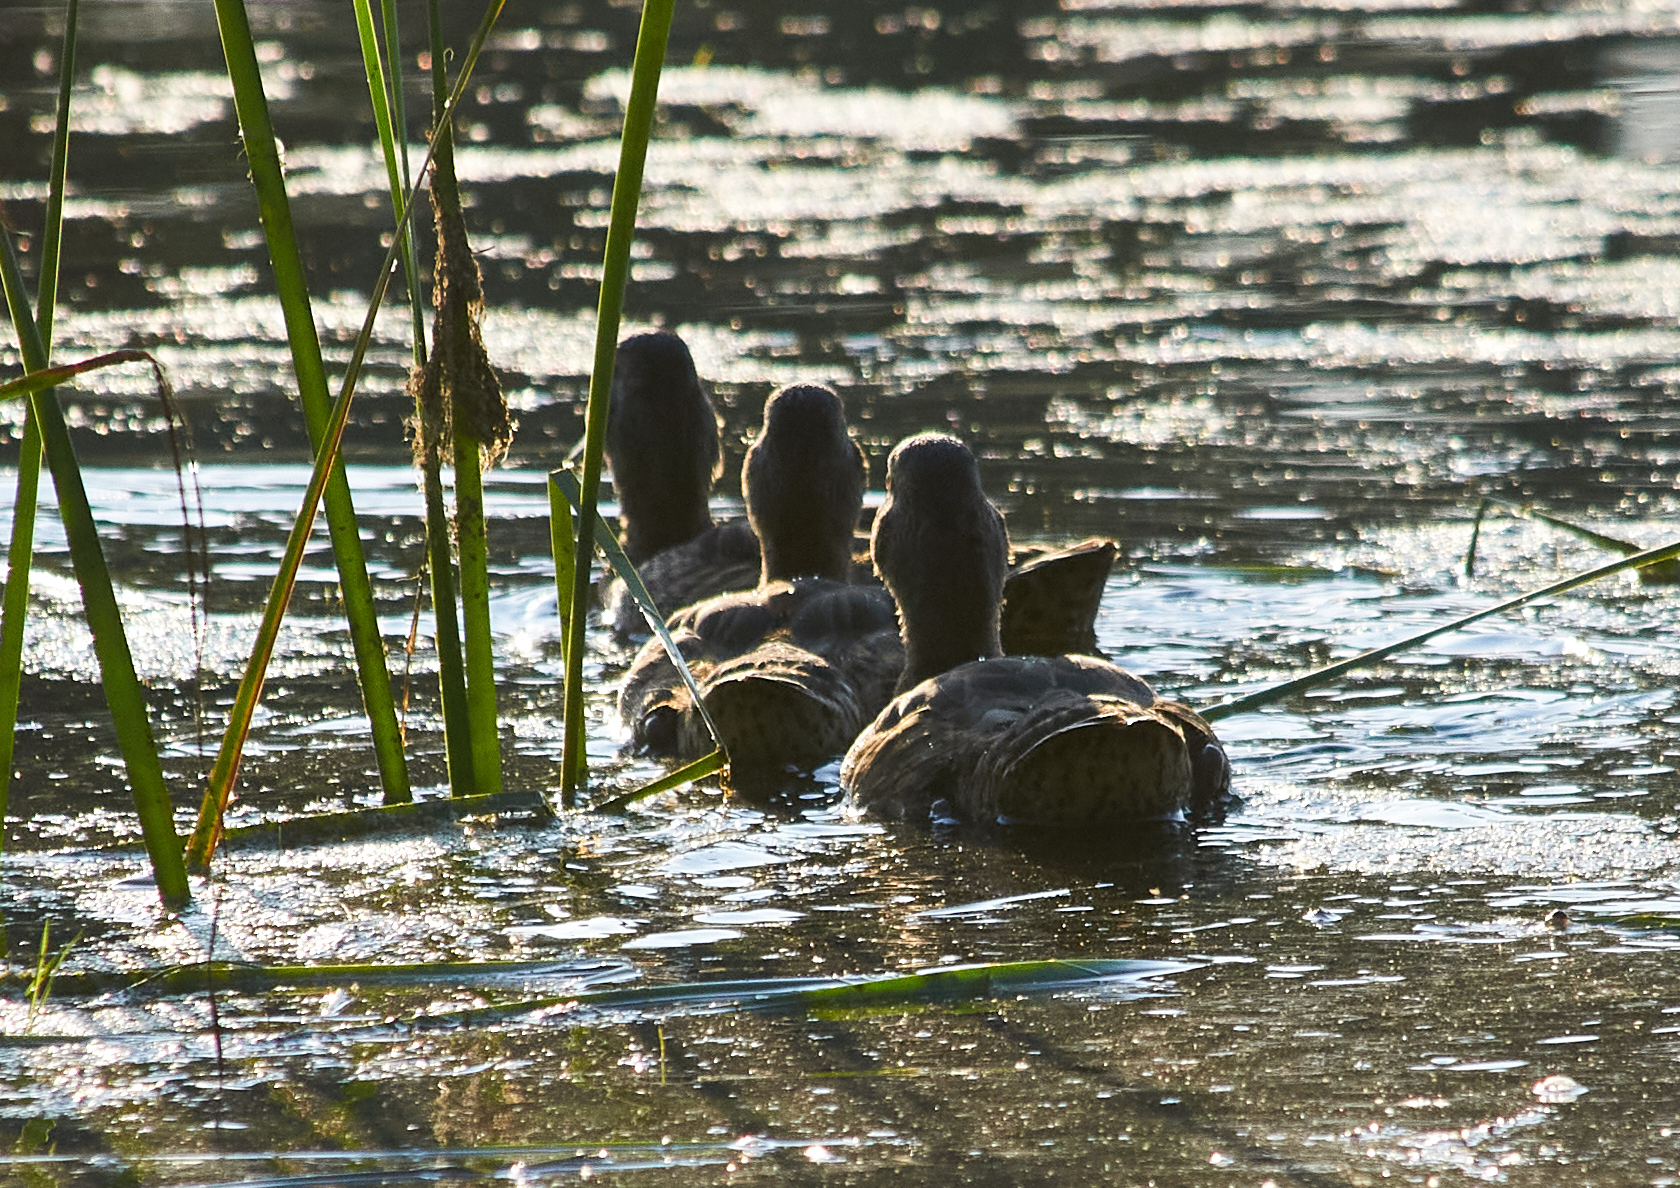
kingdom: Animalia
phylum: Chordata
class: Aves
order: Anseriformes
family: Anatidae
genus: Aythya
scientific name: Aythya ferina
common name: Common pochard
